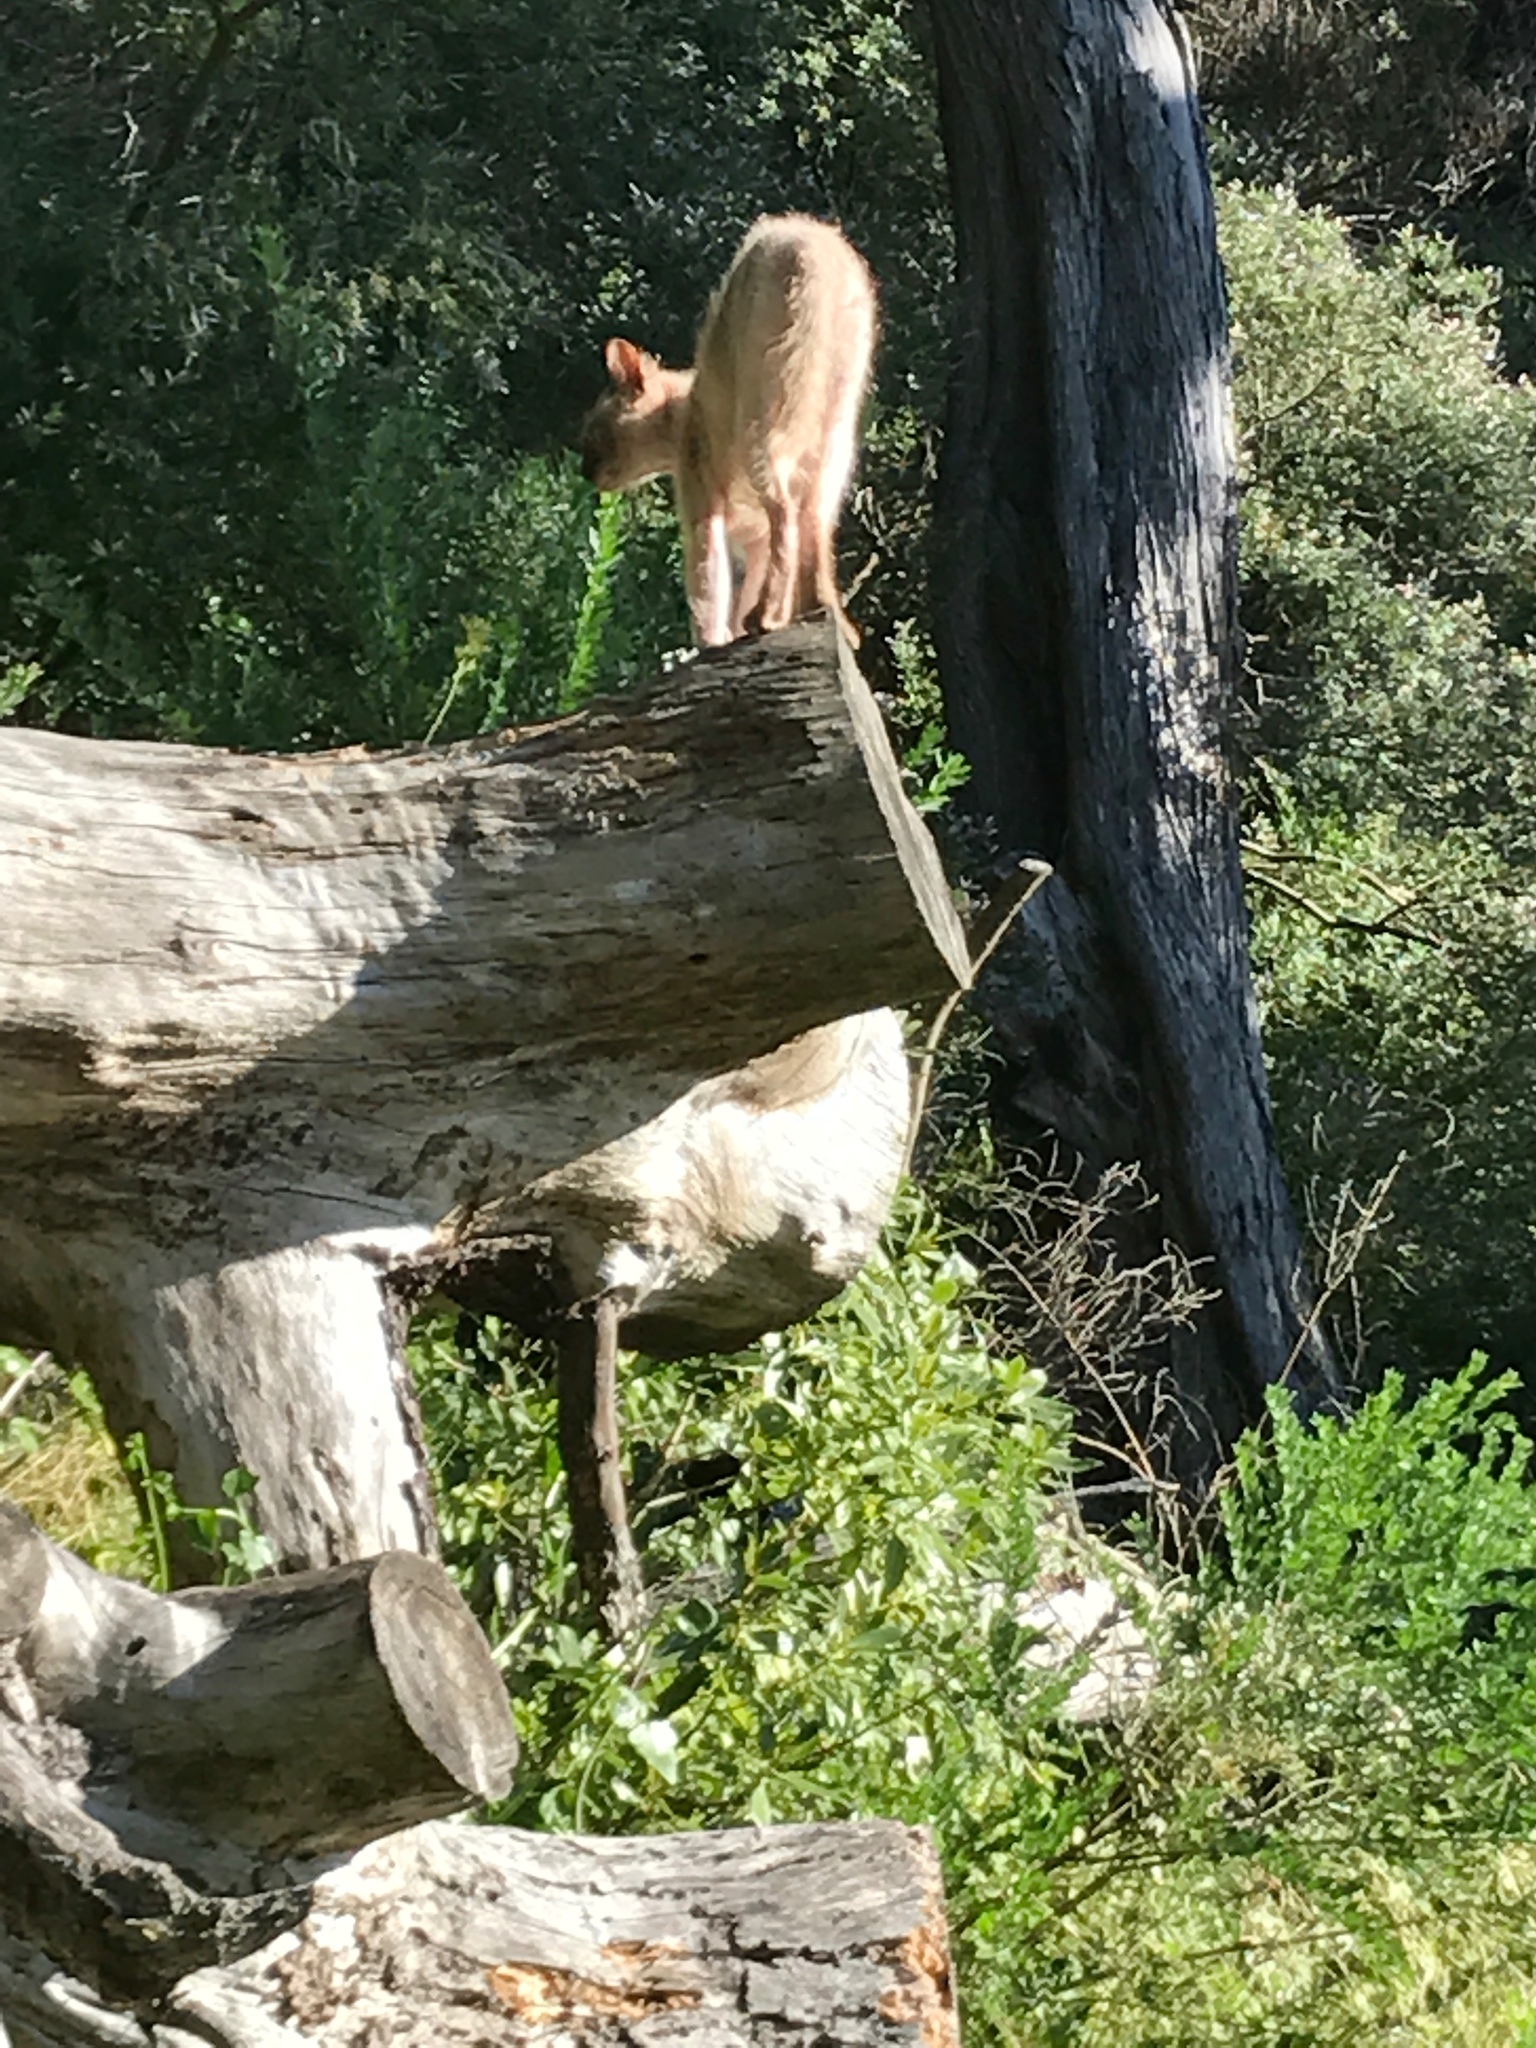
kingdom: Animalia
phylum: Chordata
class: Mammalia
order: Carnivora
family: Felidae
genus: Felis
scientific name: Felis catus
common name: Domestic cat
